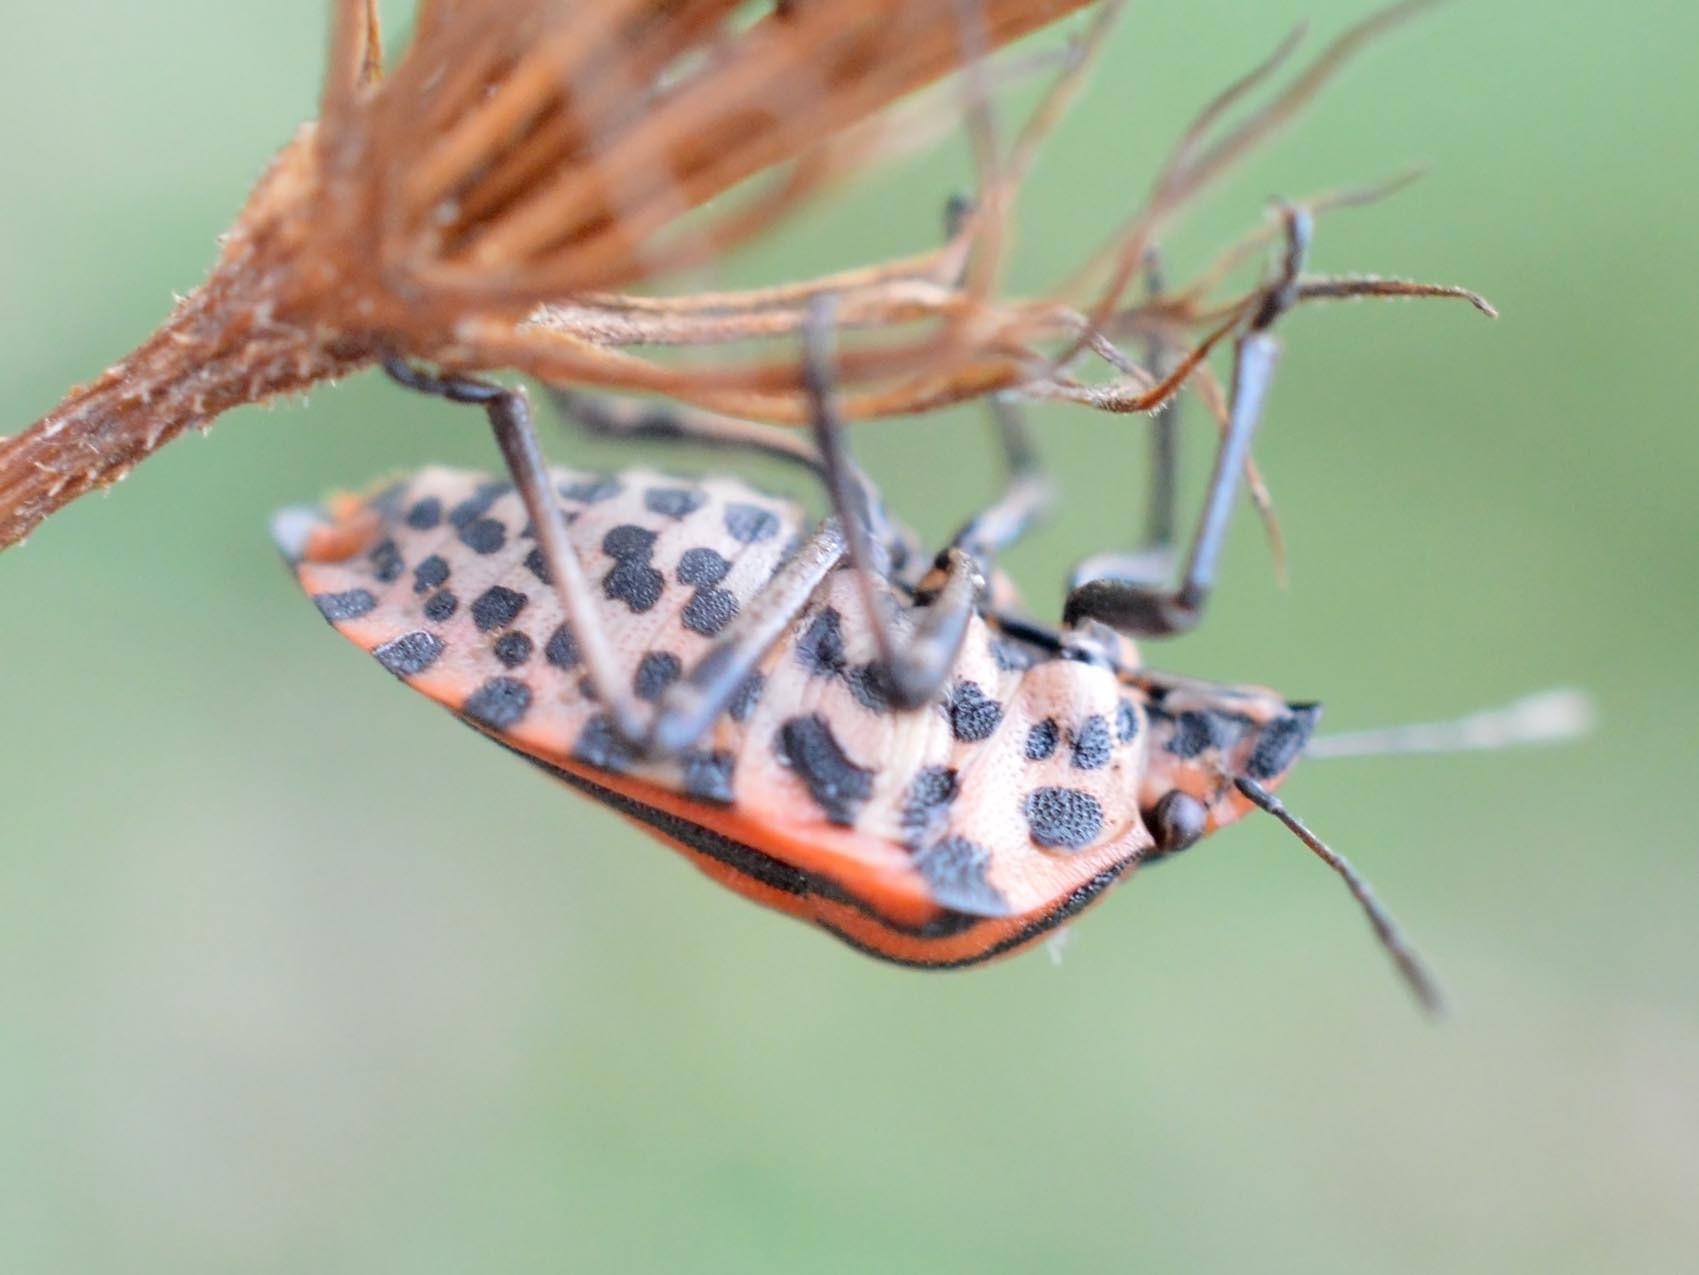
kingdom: Animalia
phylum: Arthropoda
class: Insecta
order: Hemiptera
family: Pentatomidae
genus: Graphosoma
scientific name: Graphosoma italicum
